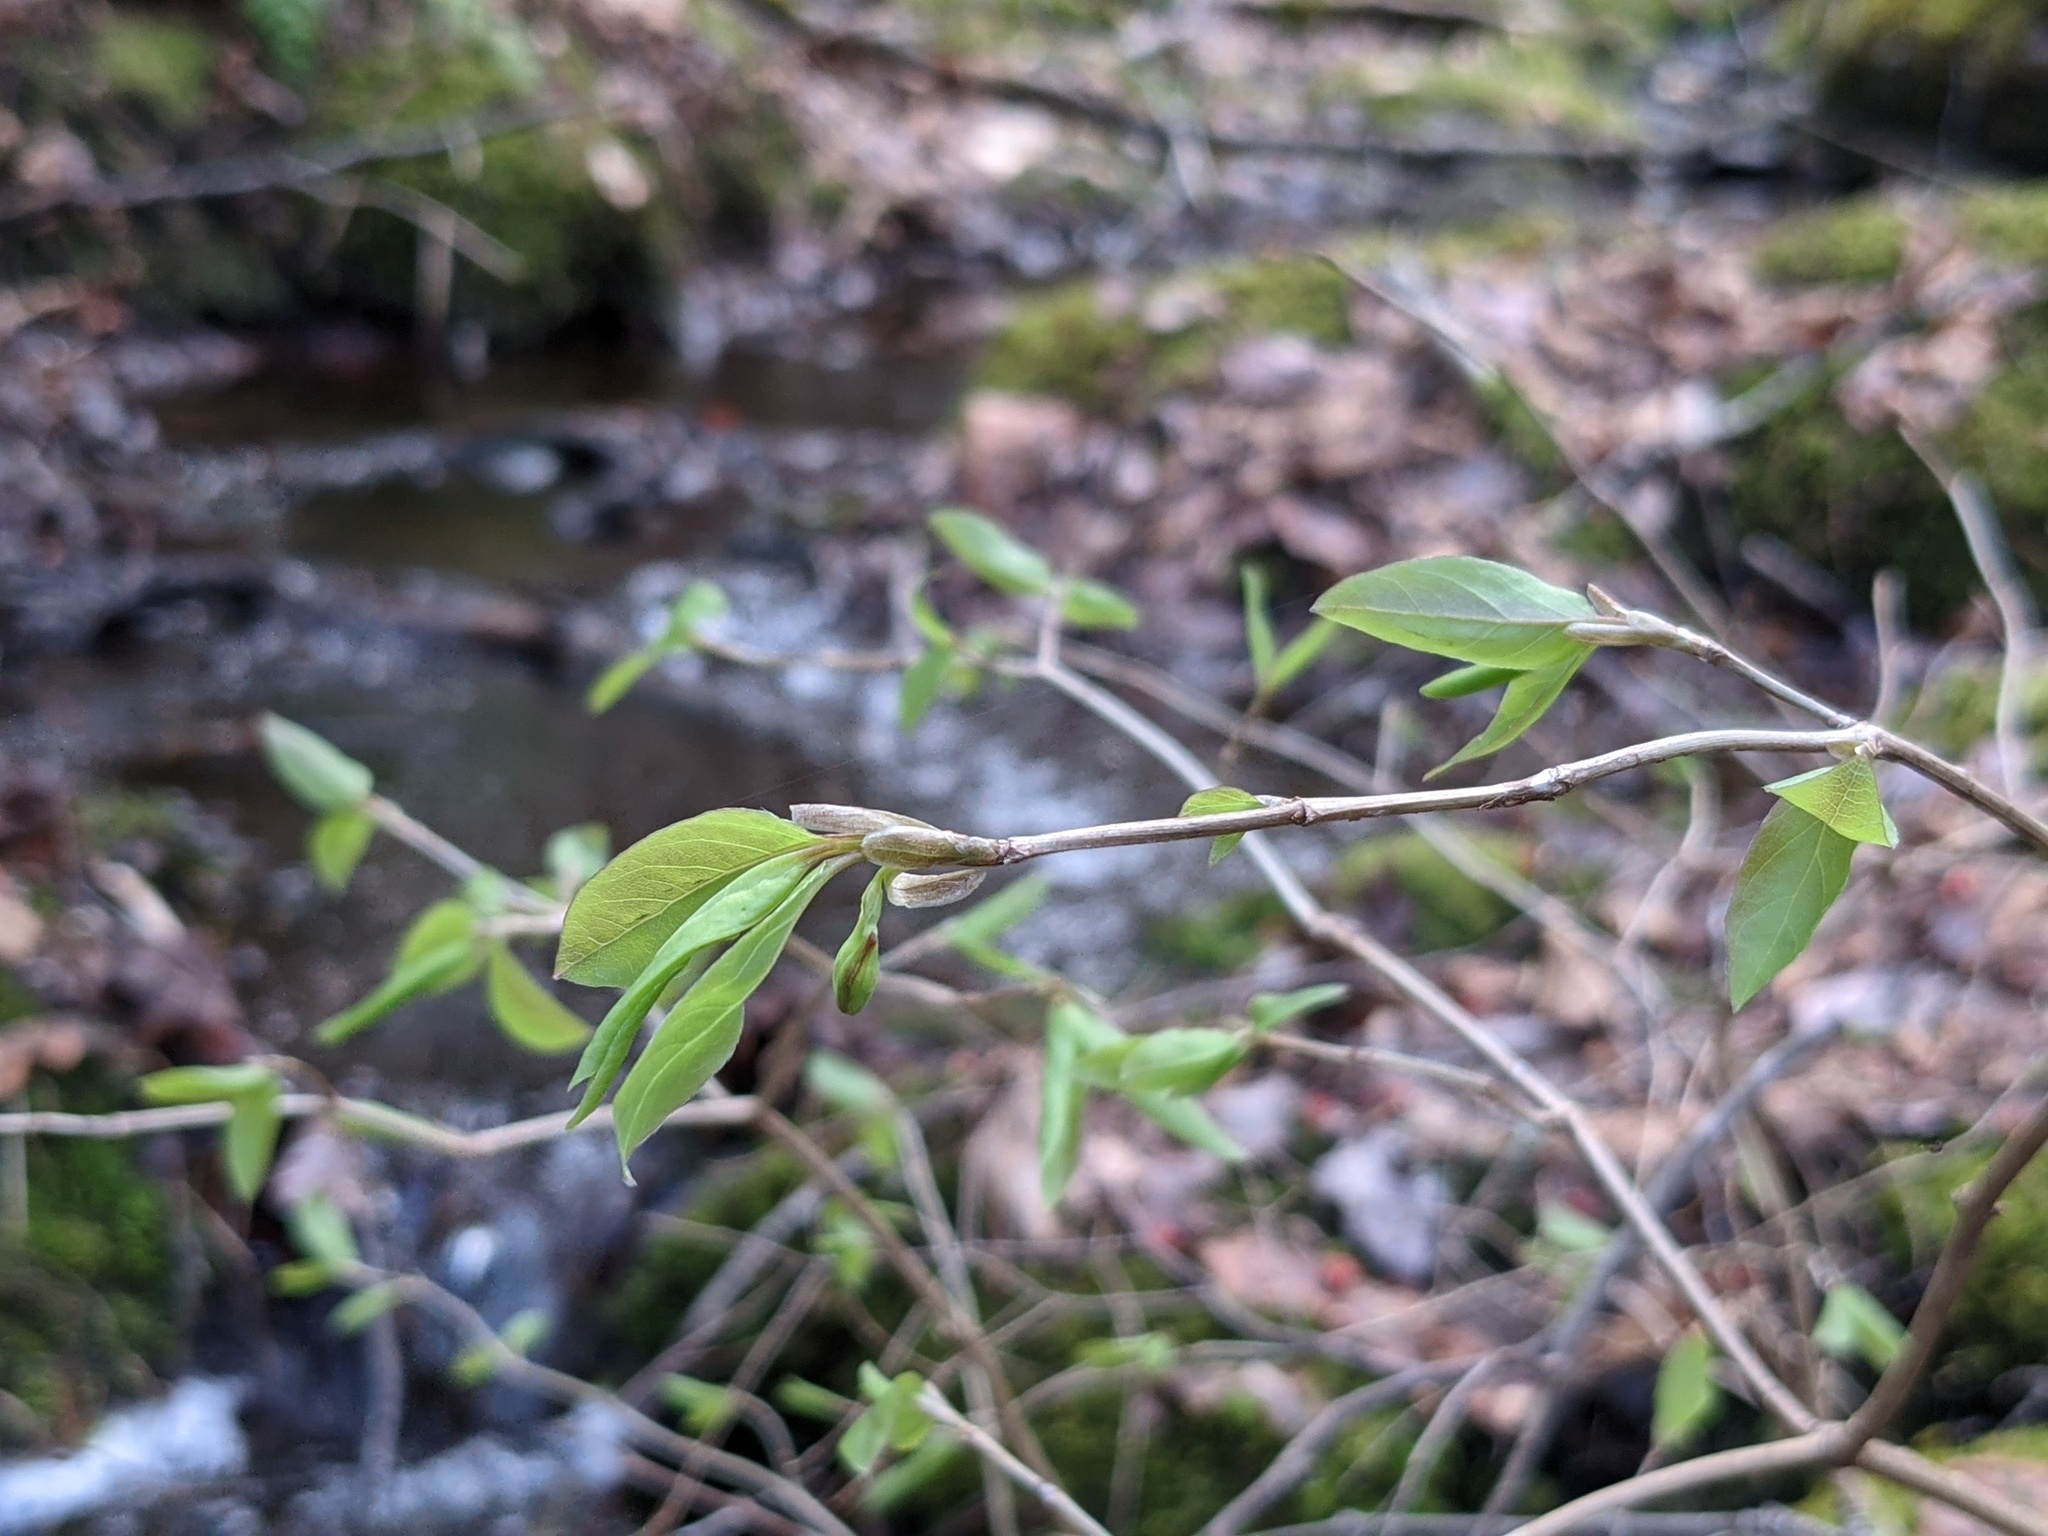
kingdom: Plantae
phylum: Tracheophyta
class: Magnoliopsida
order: Dipsacales
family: Caprifoliaceae
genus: Lonicera
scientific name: Lonicera canadensis
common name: American fly-honeysuckle
